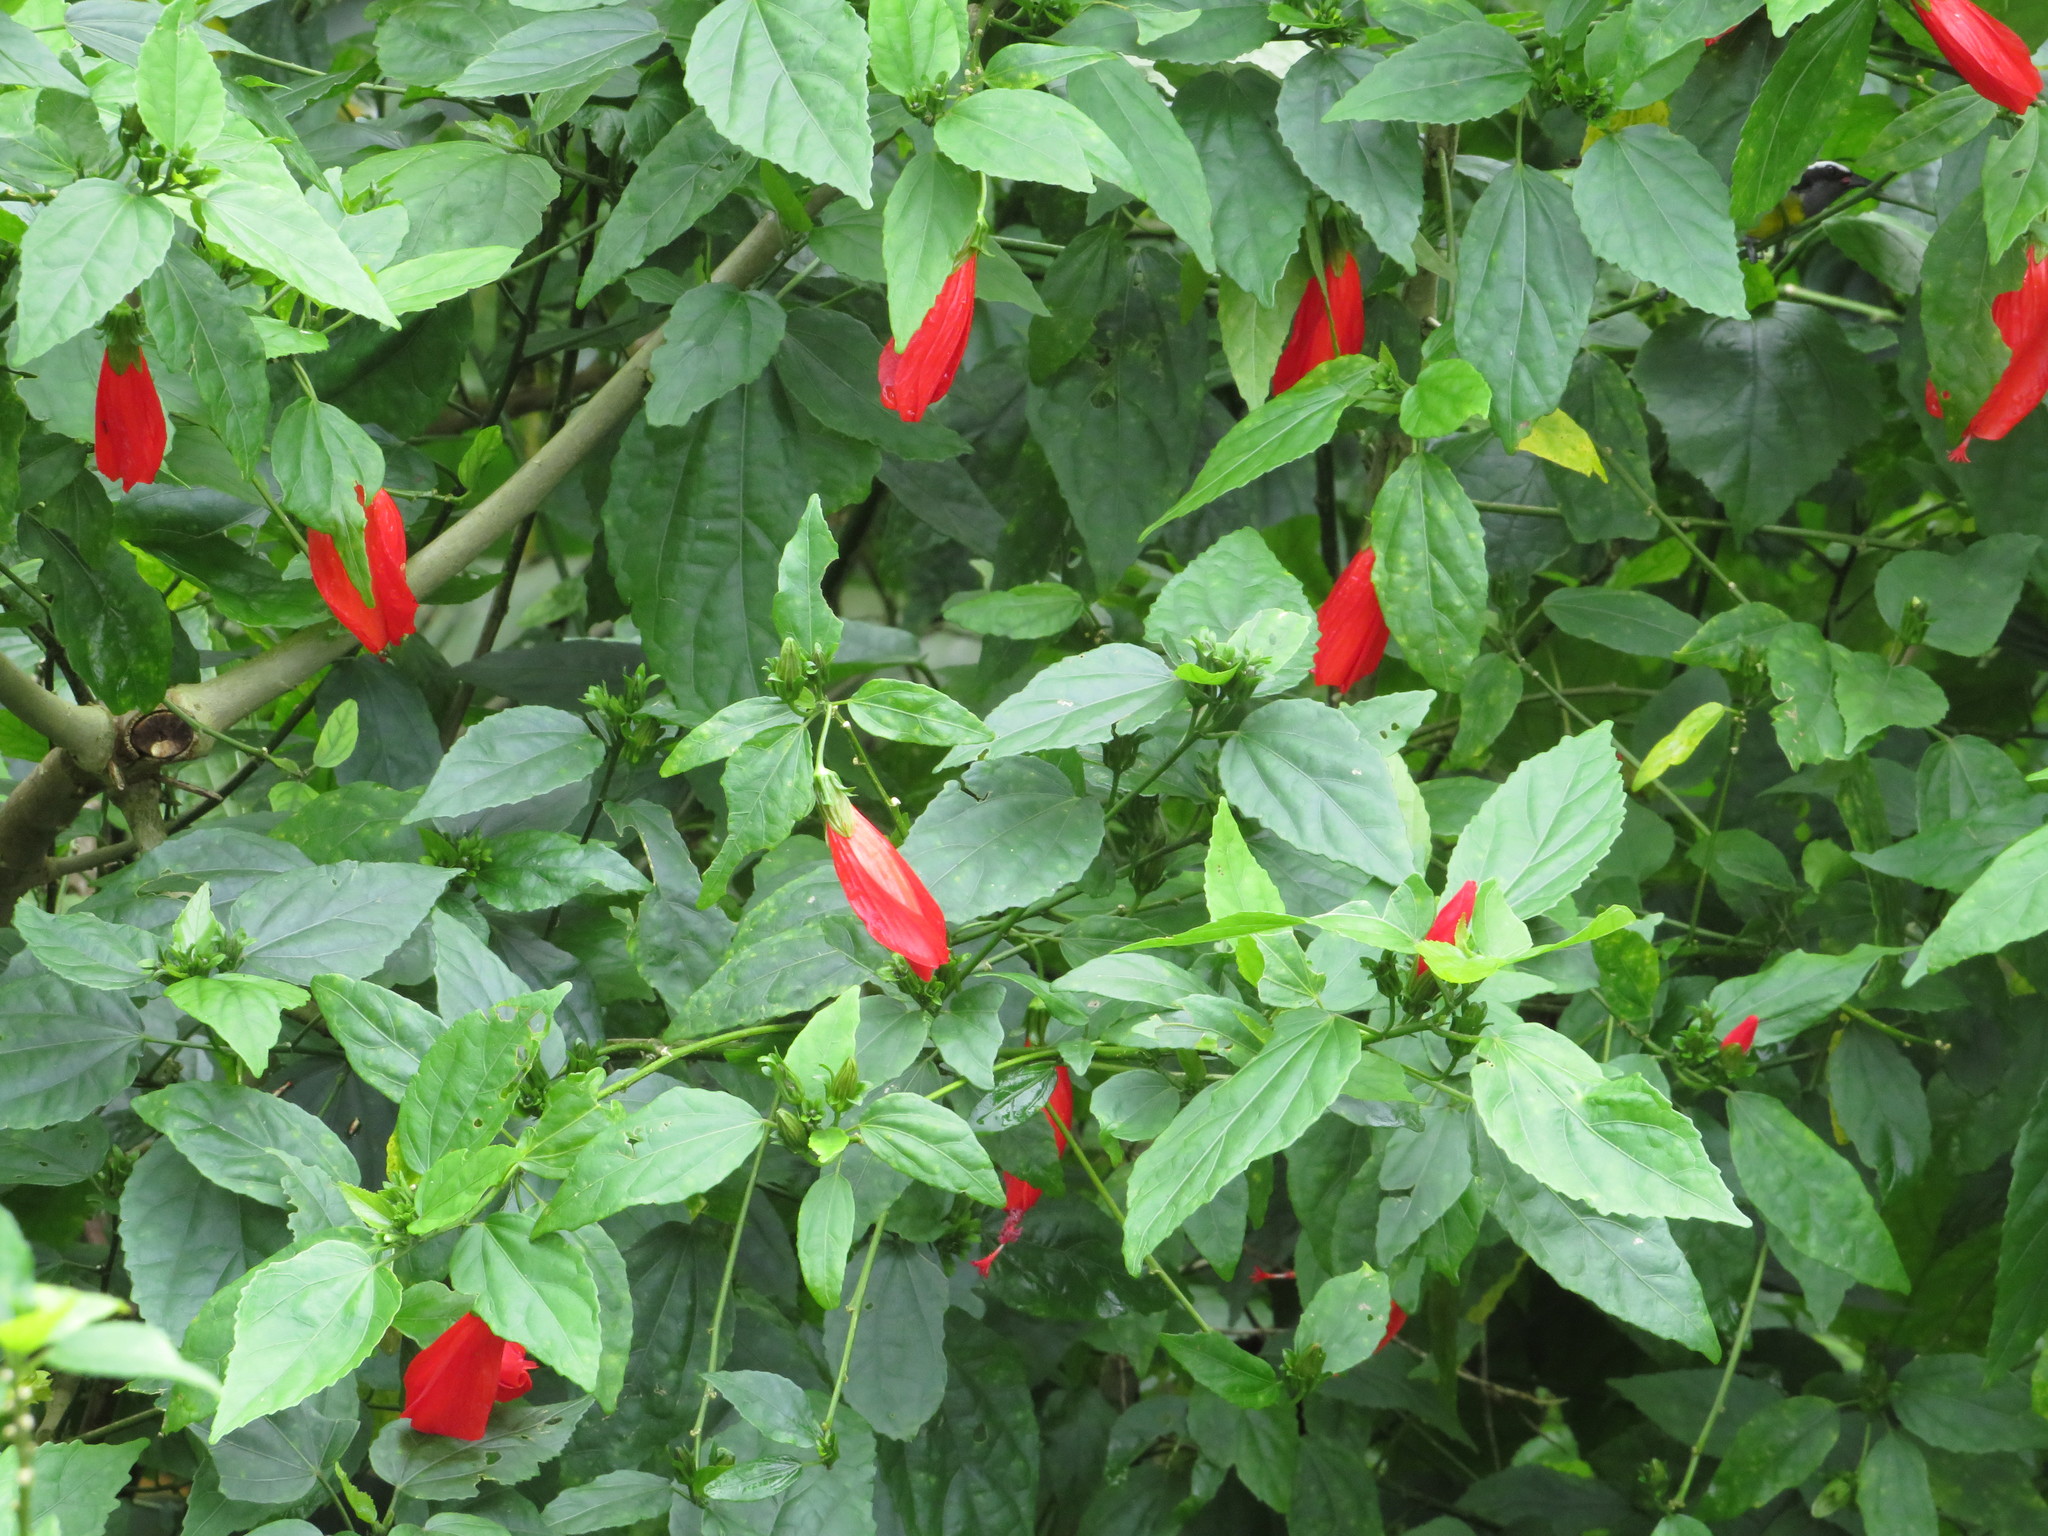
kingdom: Plantae
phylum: Tracheophyta
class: Magnoliopsida
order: Malvales
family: Malvaceae
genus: Malvaviscus
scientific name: Malvaviscus penduliflorus
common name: Mazapan
